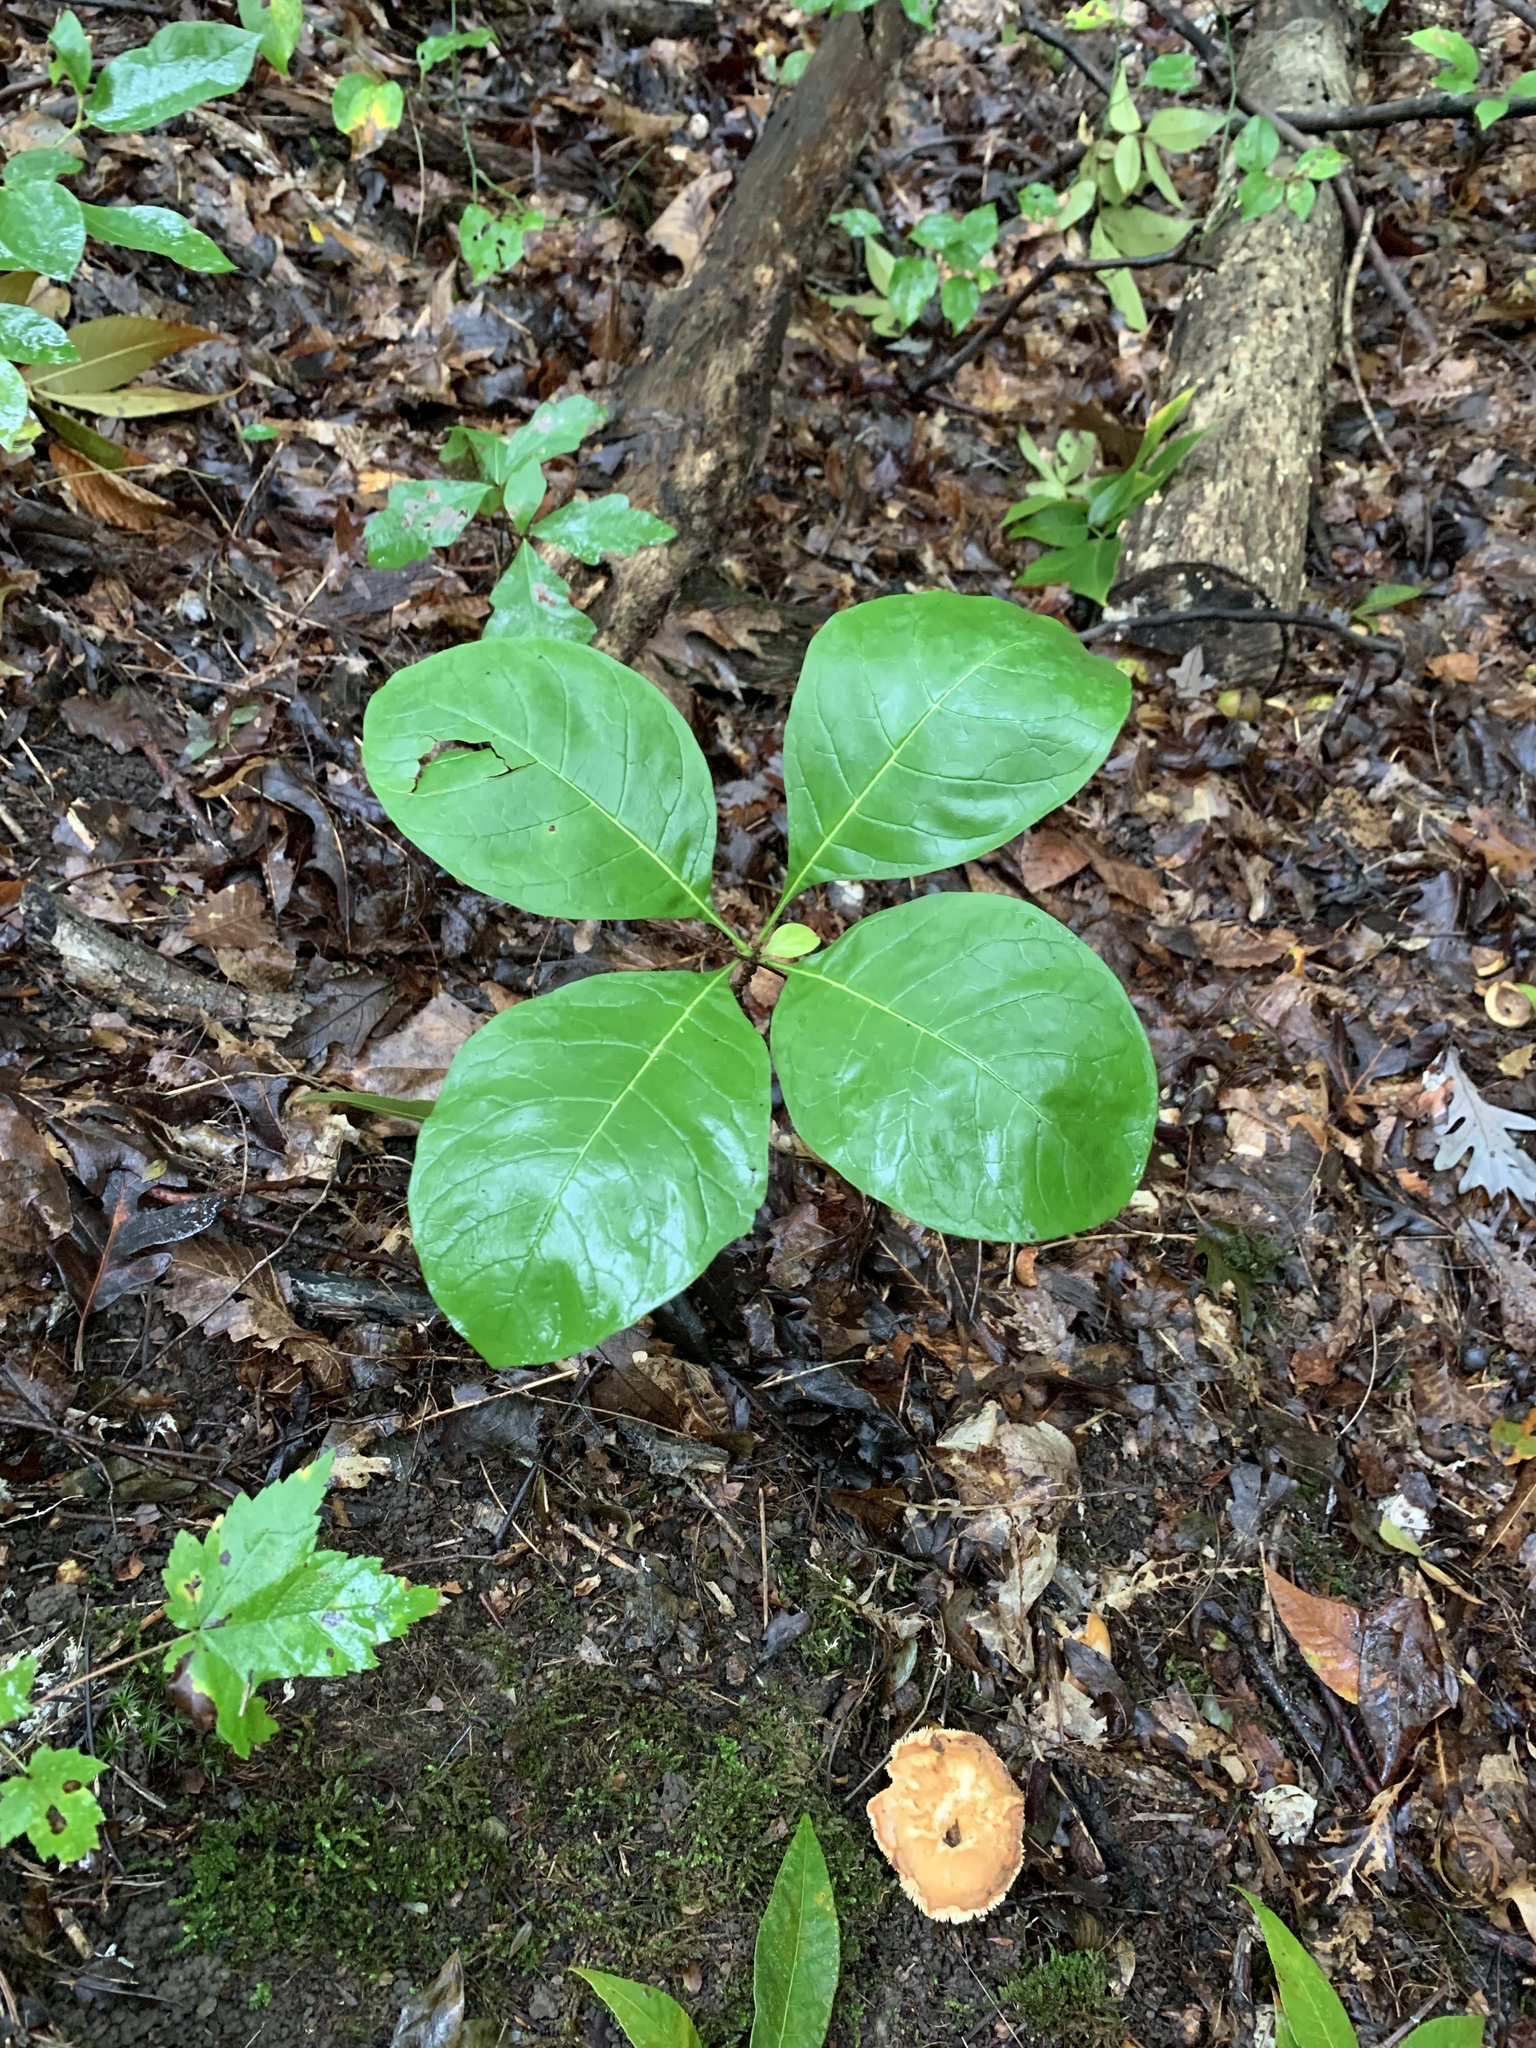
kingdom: Plantae
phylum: Tracheophyta
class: Magnoliopsida
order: Lamiales
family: Oleaceae
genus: Chionanthus
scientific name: Chionanthus virginicus
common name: American fringetree
